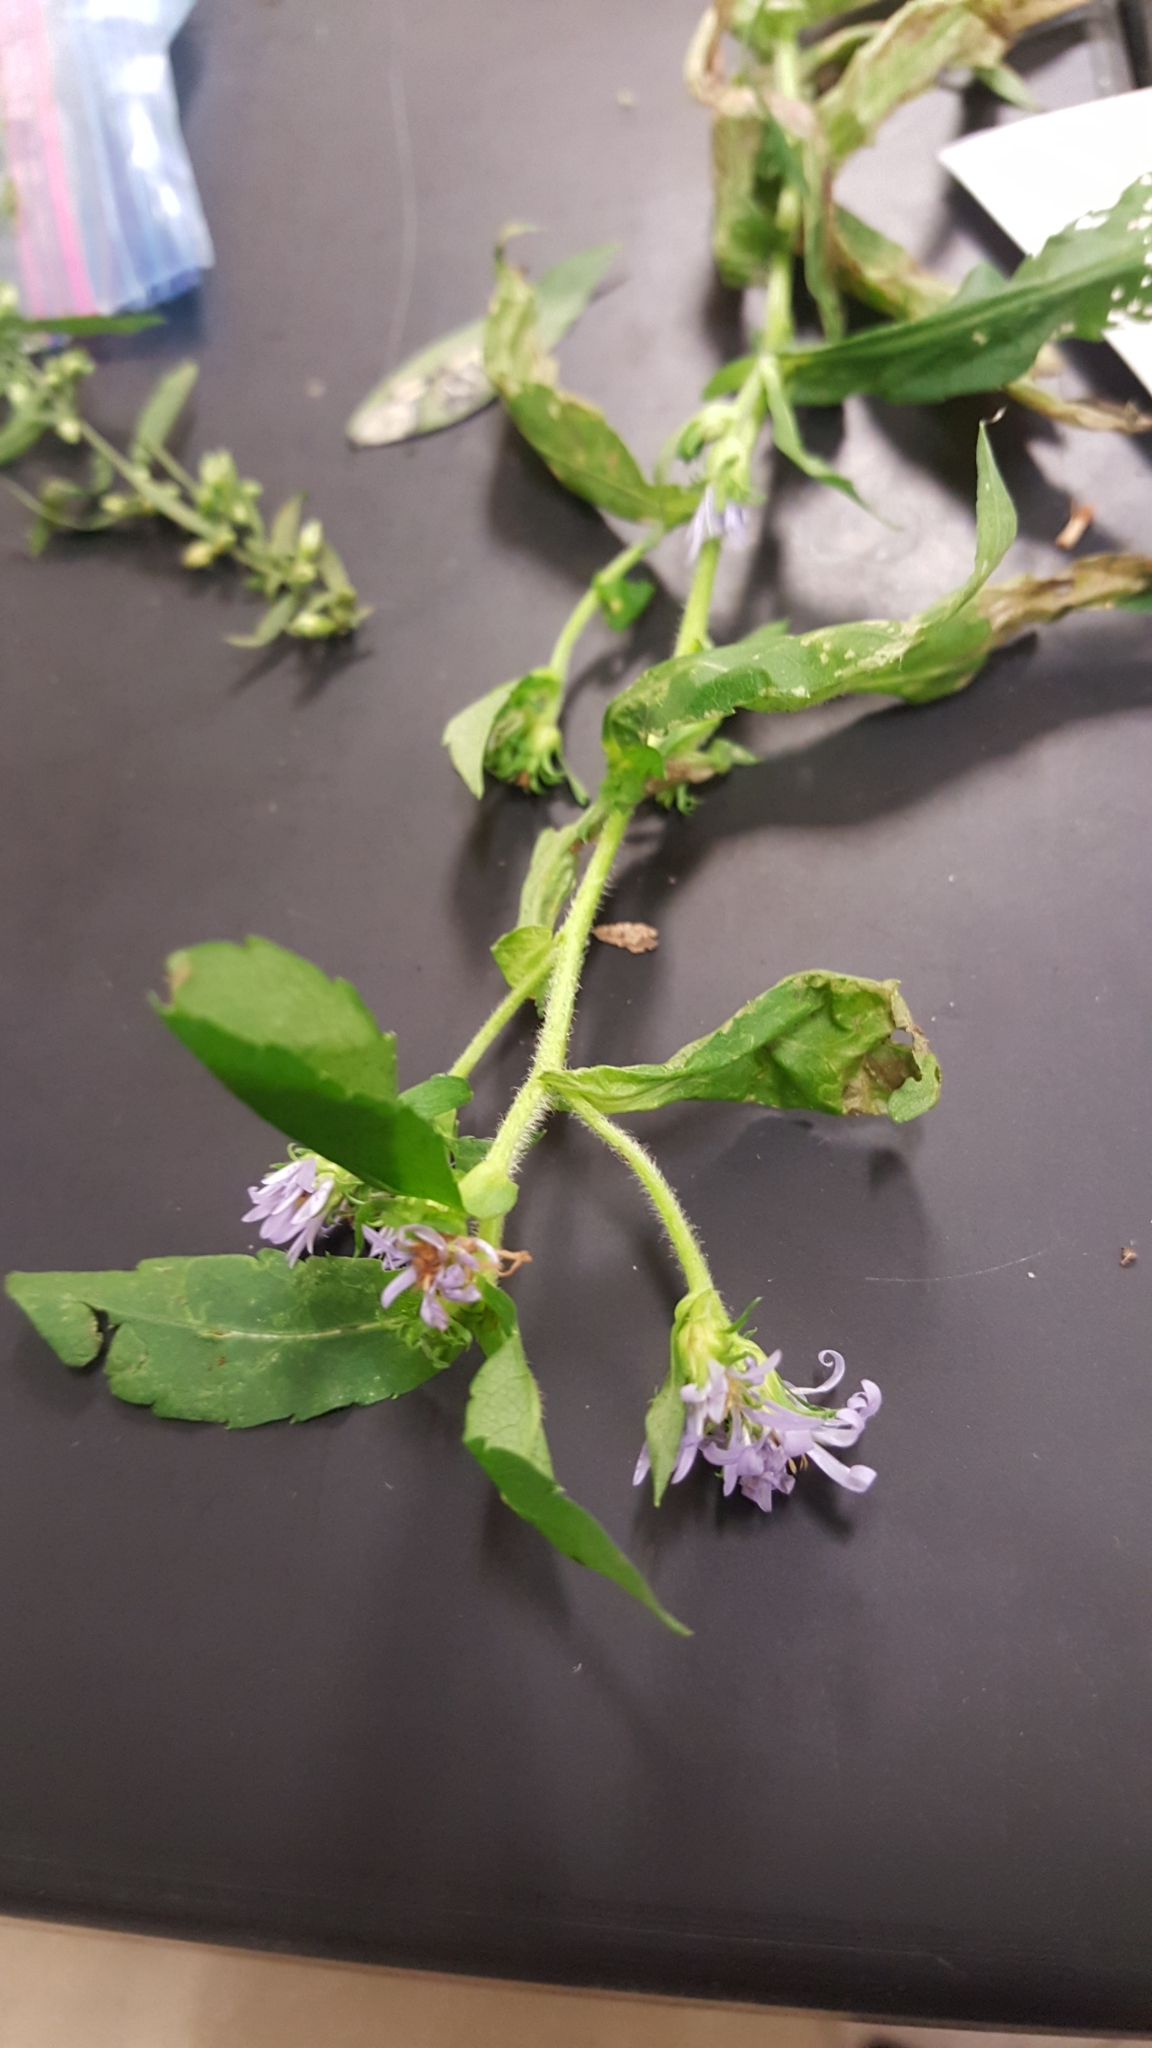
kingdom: Plantae
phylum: Tracheophyta
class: Magnoliopsida
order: Asterales
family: Asteraceae
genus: Symphyotrichum
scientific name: Symphyotrichum puniceum
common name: Bog aster
